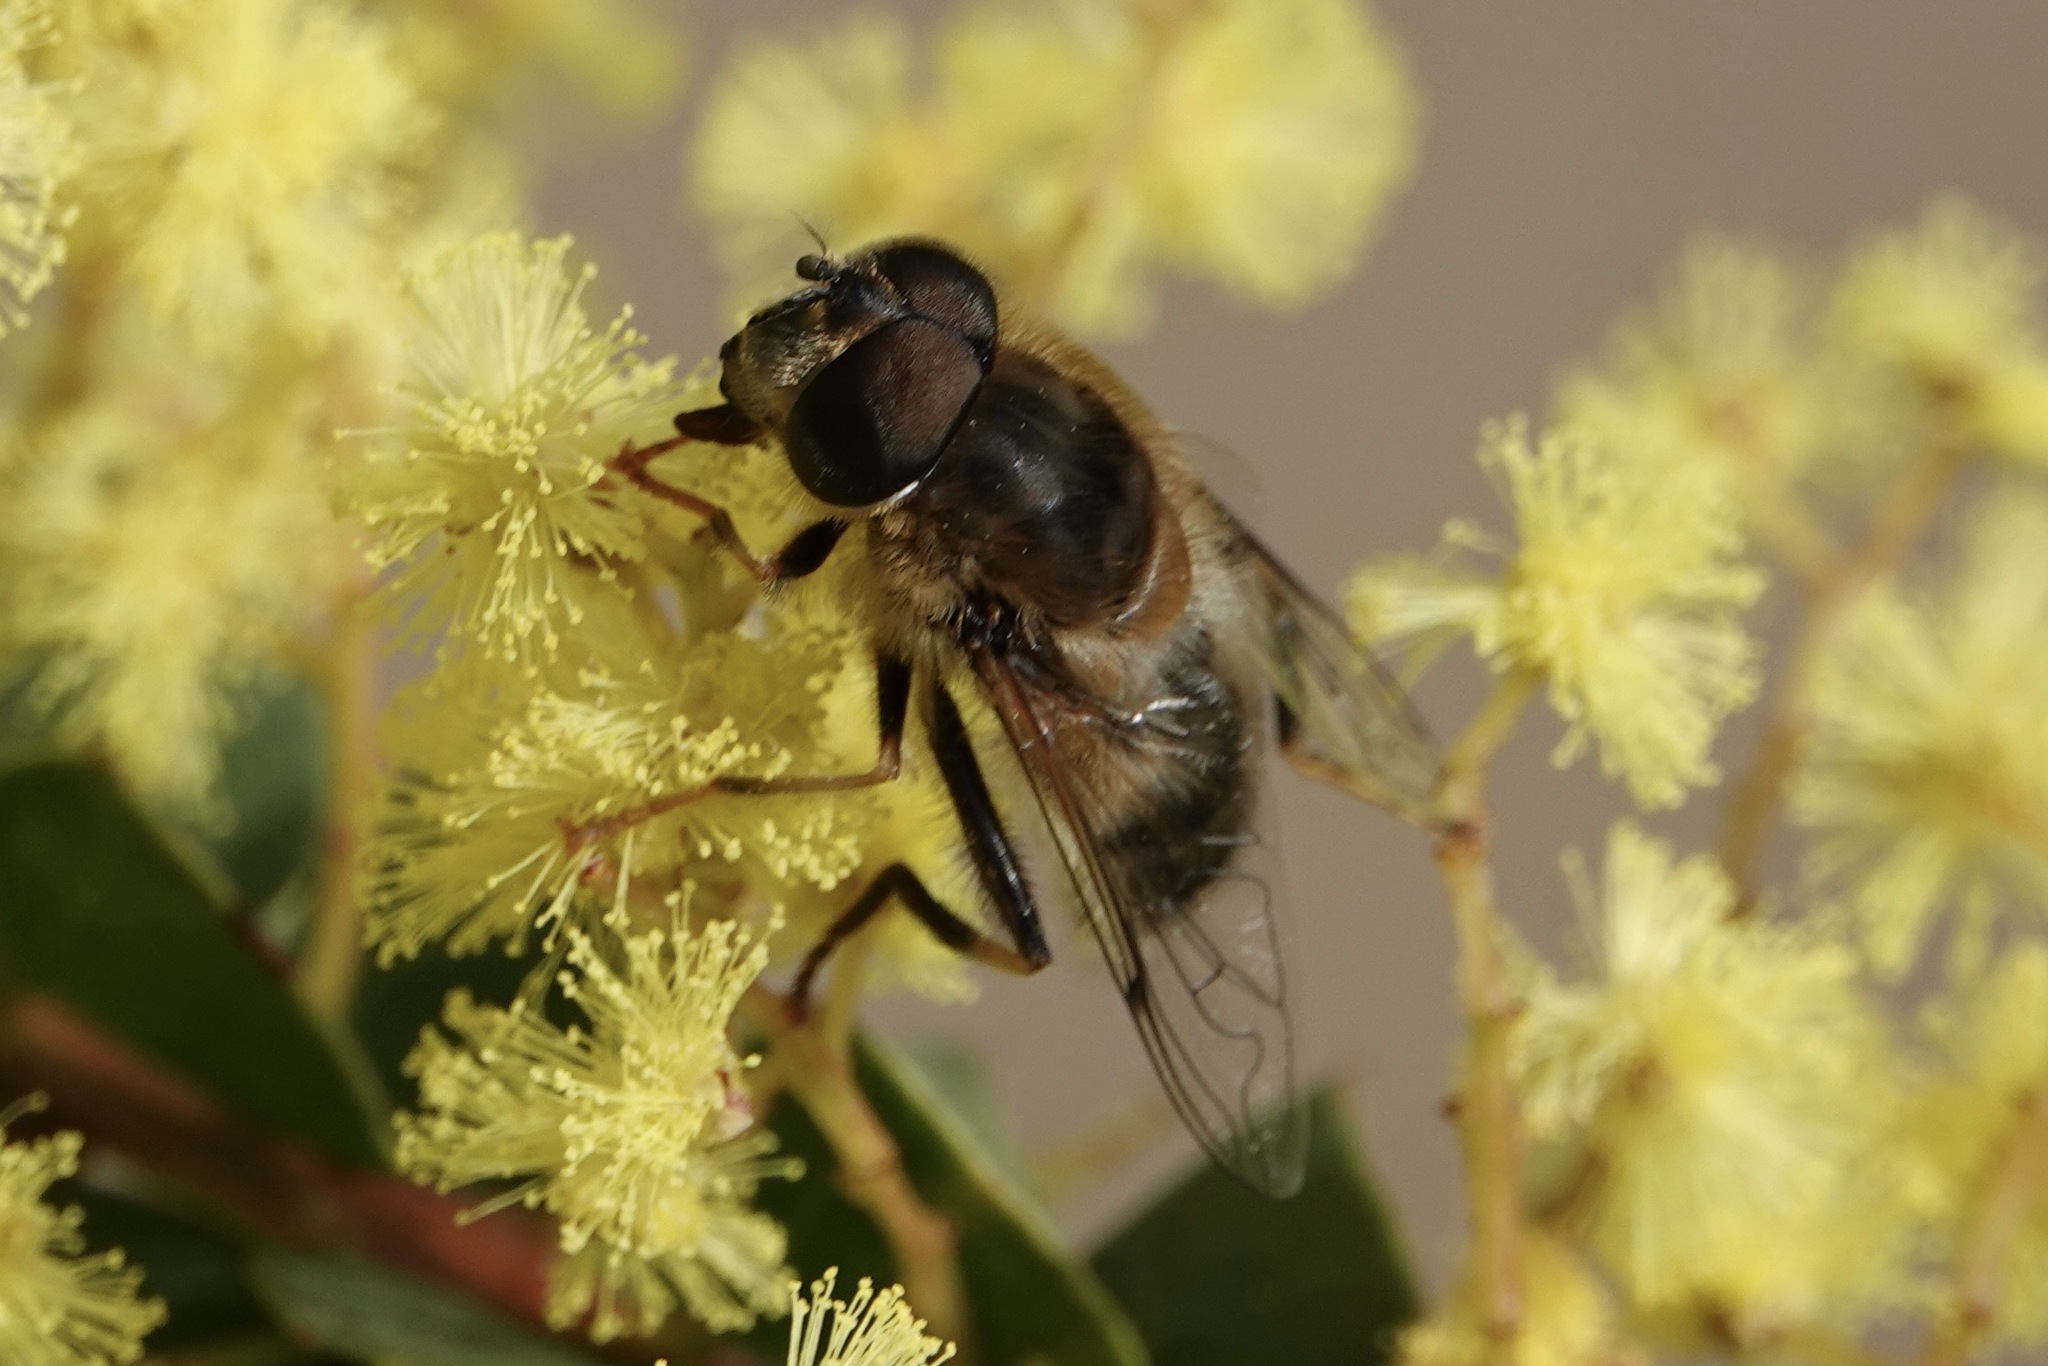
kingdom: Animalia
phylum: Arthropoda
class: Insecta
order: Diptera
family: Syrphidae
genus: Eristalis
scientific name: Eristalis pertinax
